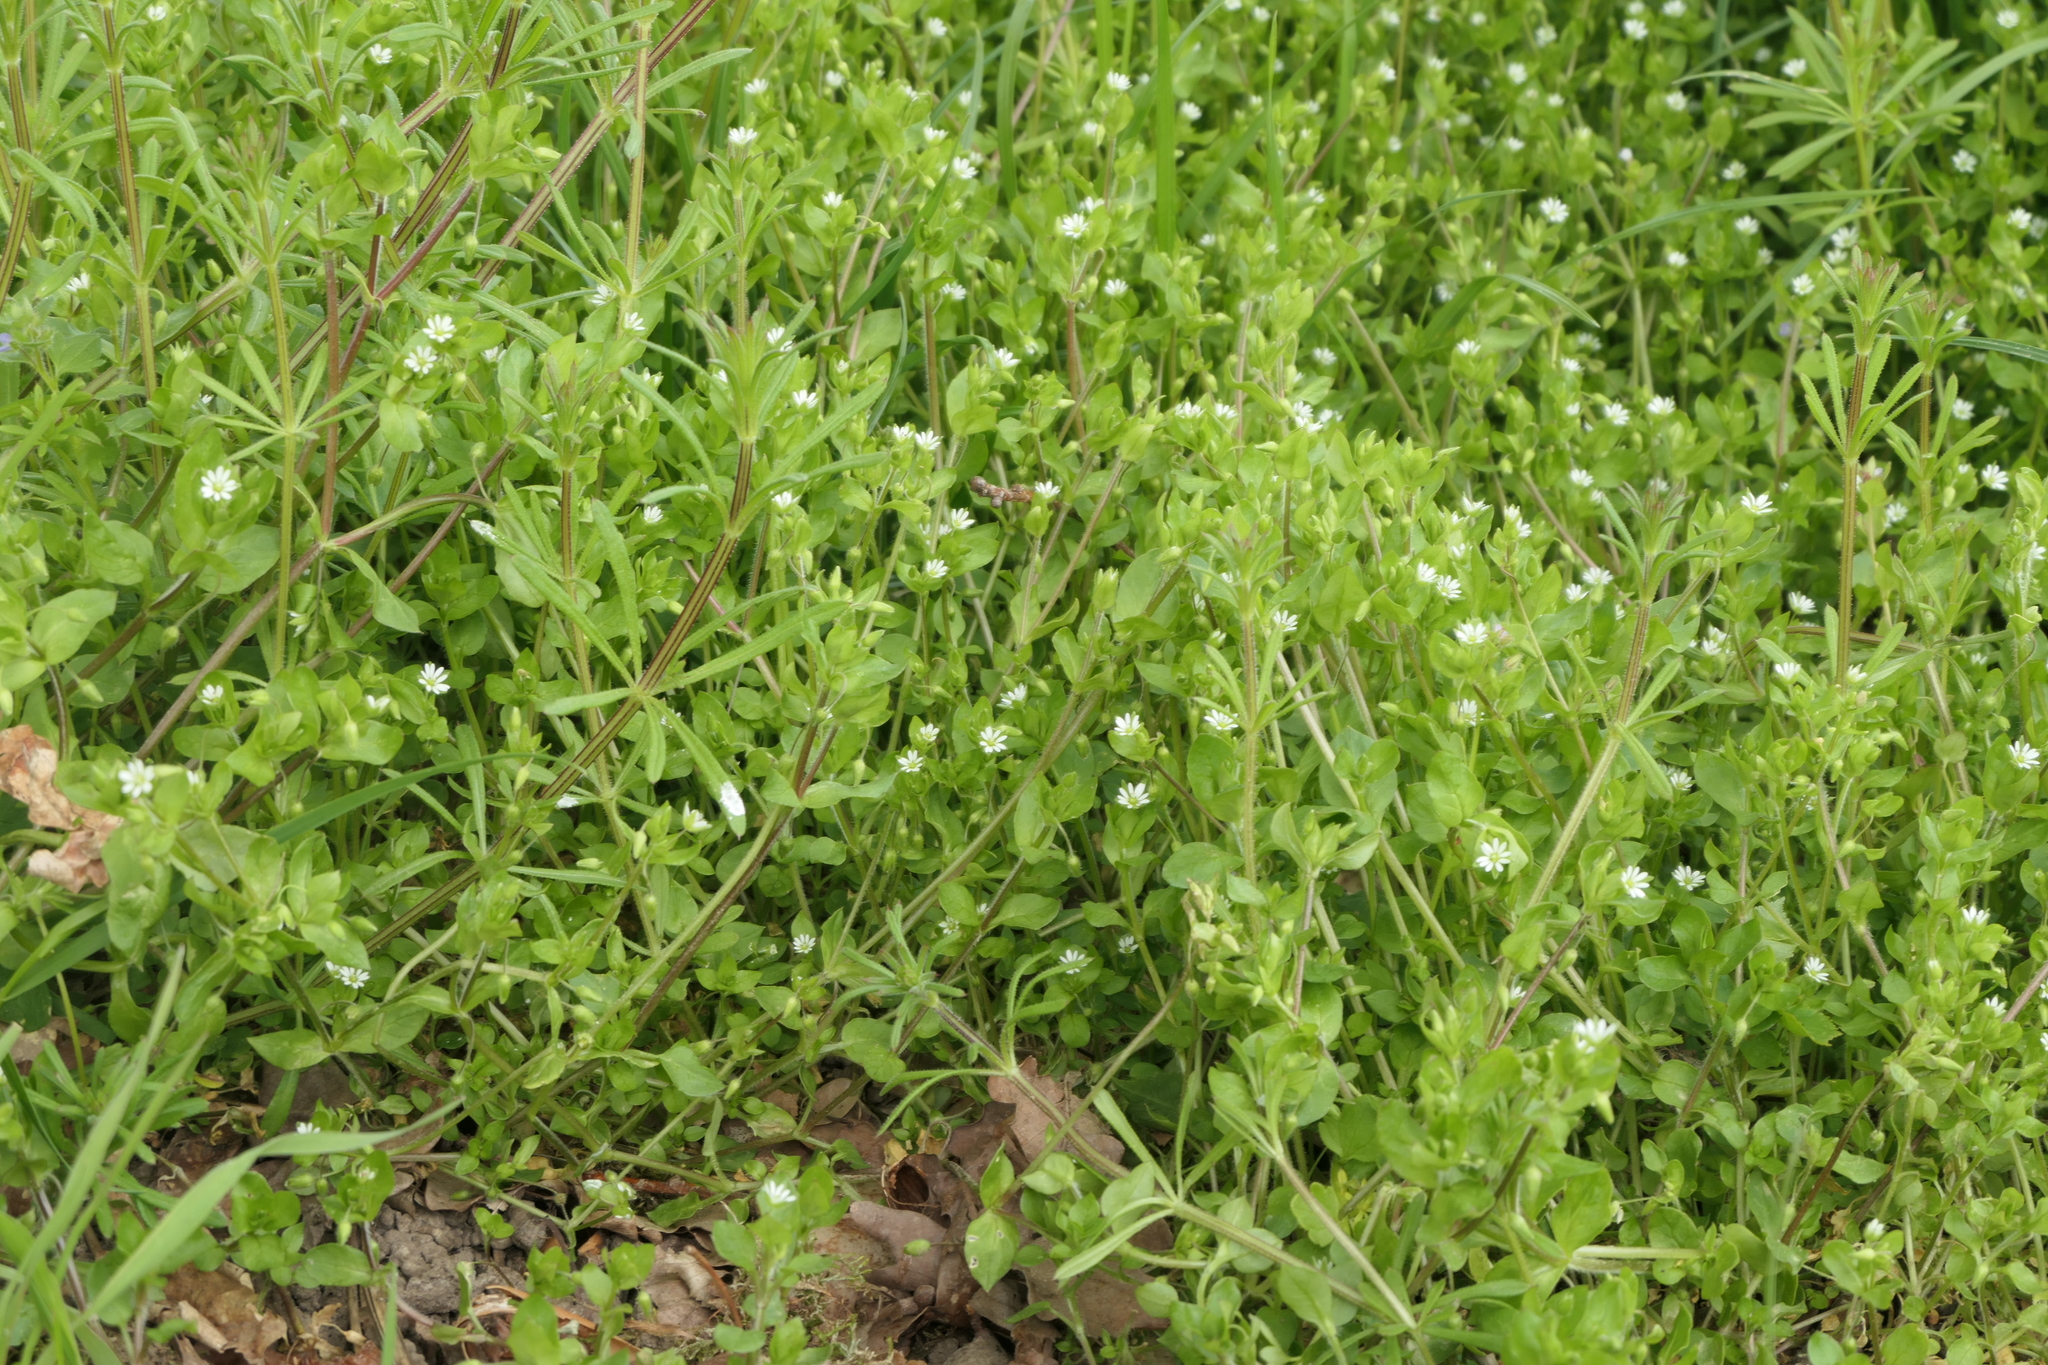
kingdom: Plantae
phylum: Tracheophyta
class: Magnoliopsida
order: Caryophyllales
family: Caryophyllaceae
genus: Stellaria
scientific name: Stellaria media
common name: Common chickweed
